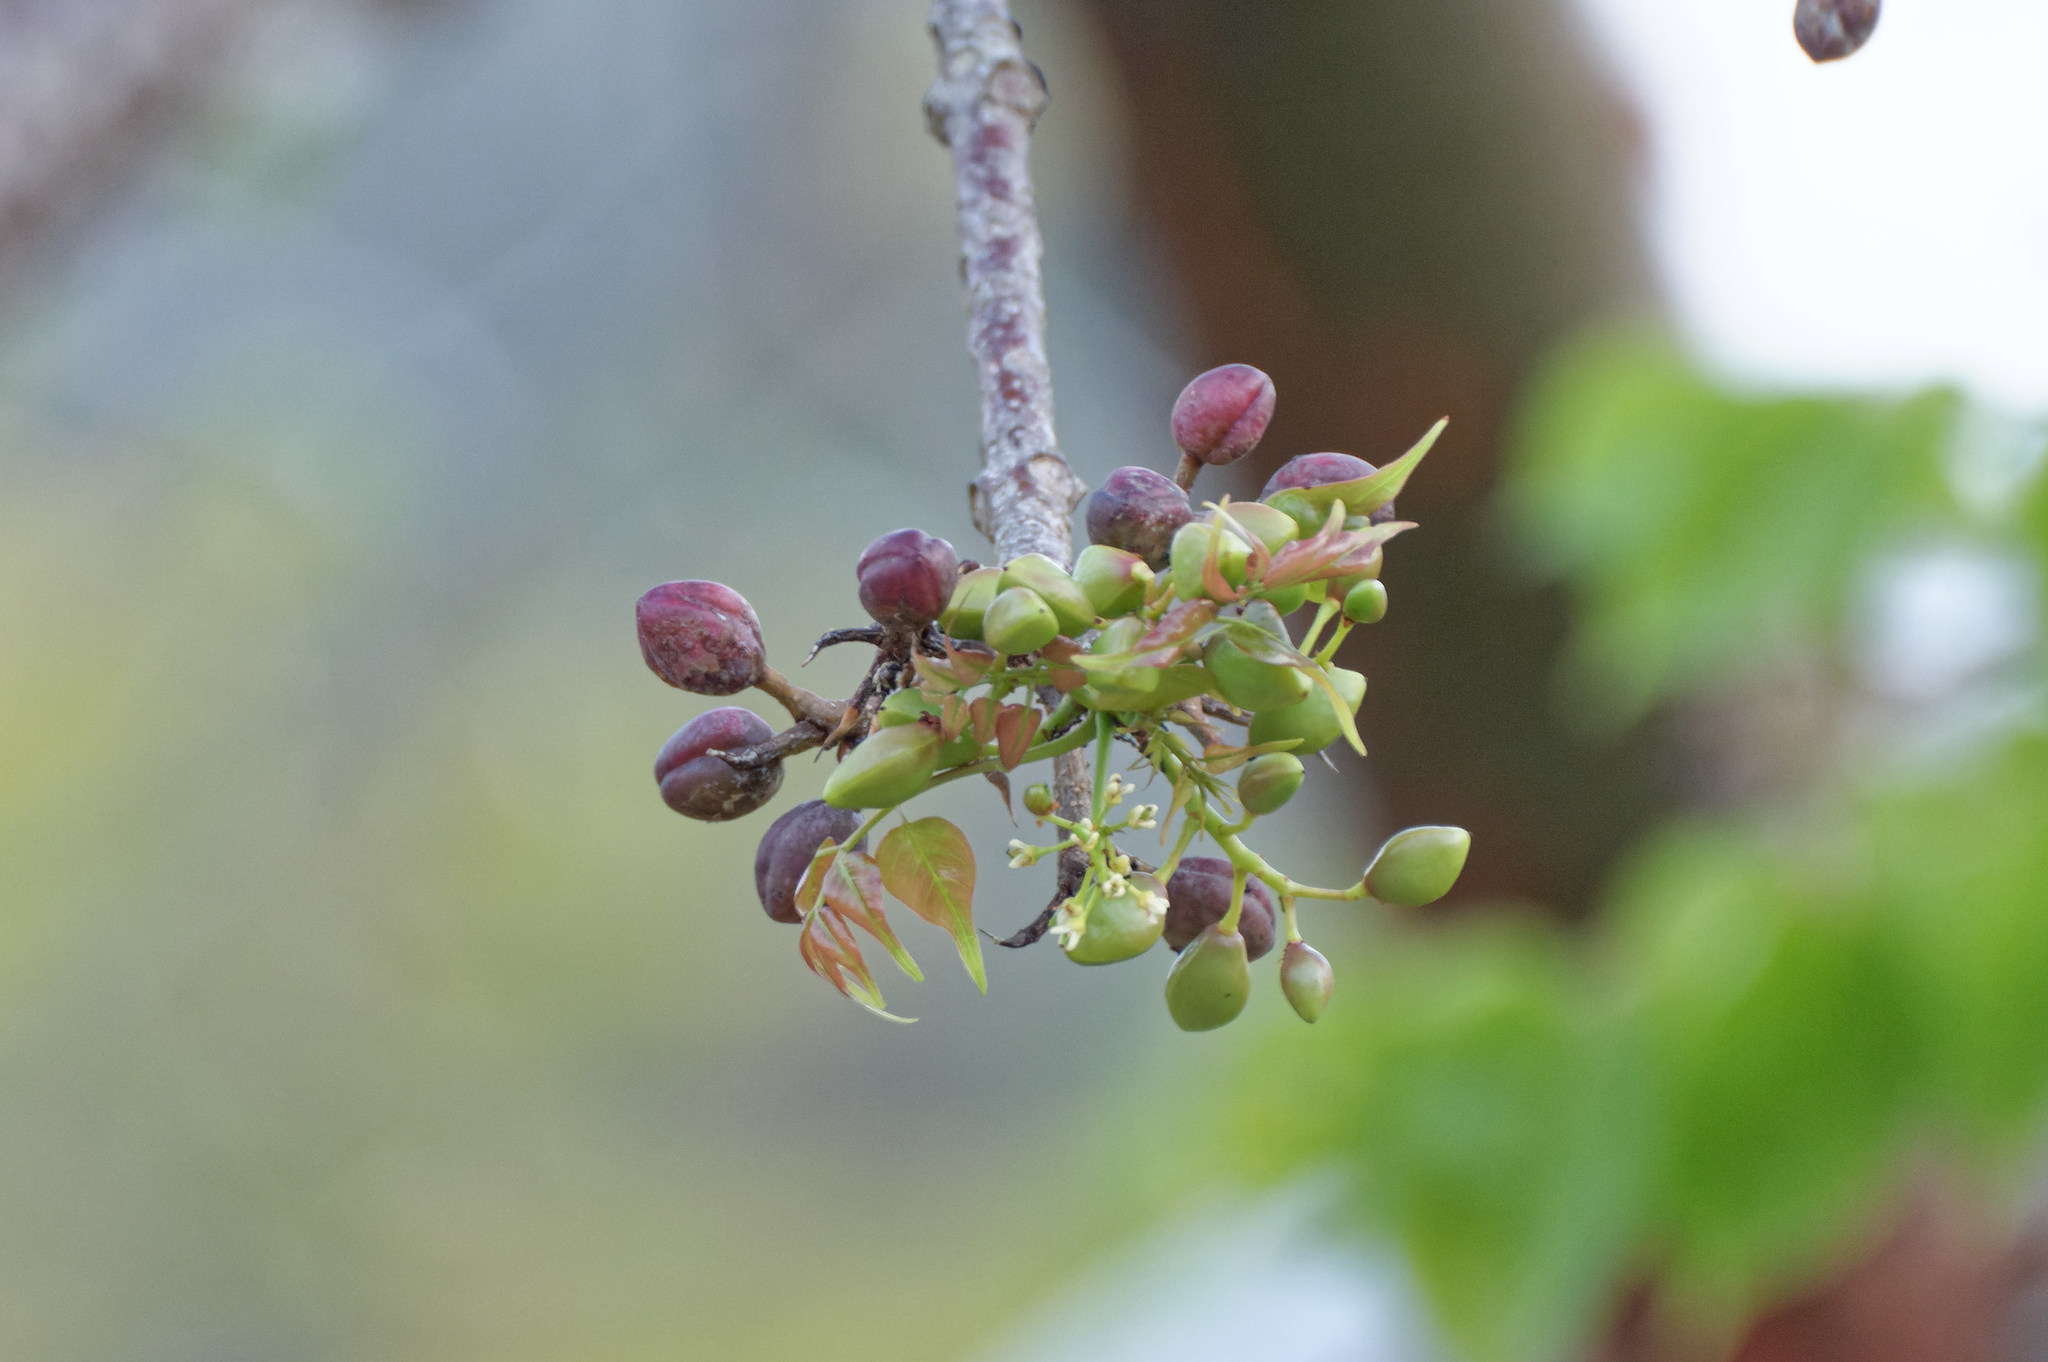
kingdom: Plantae
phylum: Tracheophyta
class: Magnoliopsida
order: Sapindales
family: Burseraceae
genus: Bursera
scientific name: Bursera simaruba
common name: Turpentine tree
